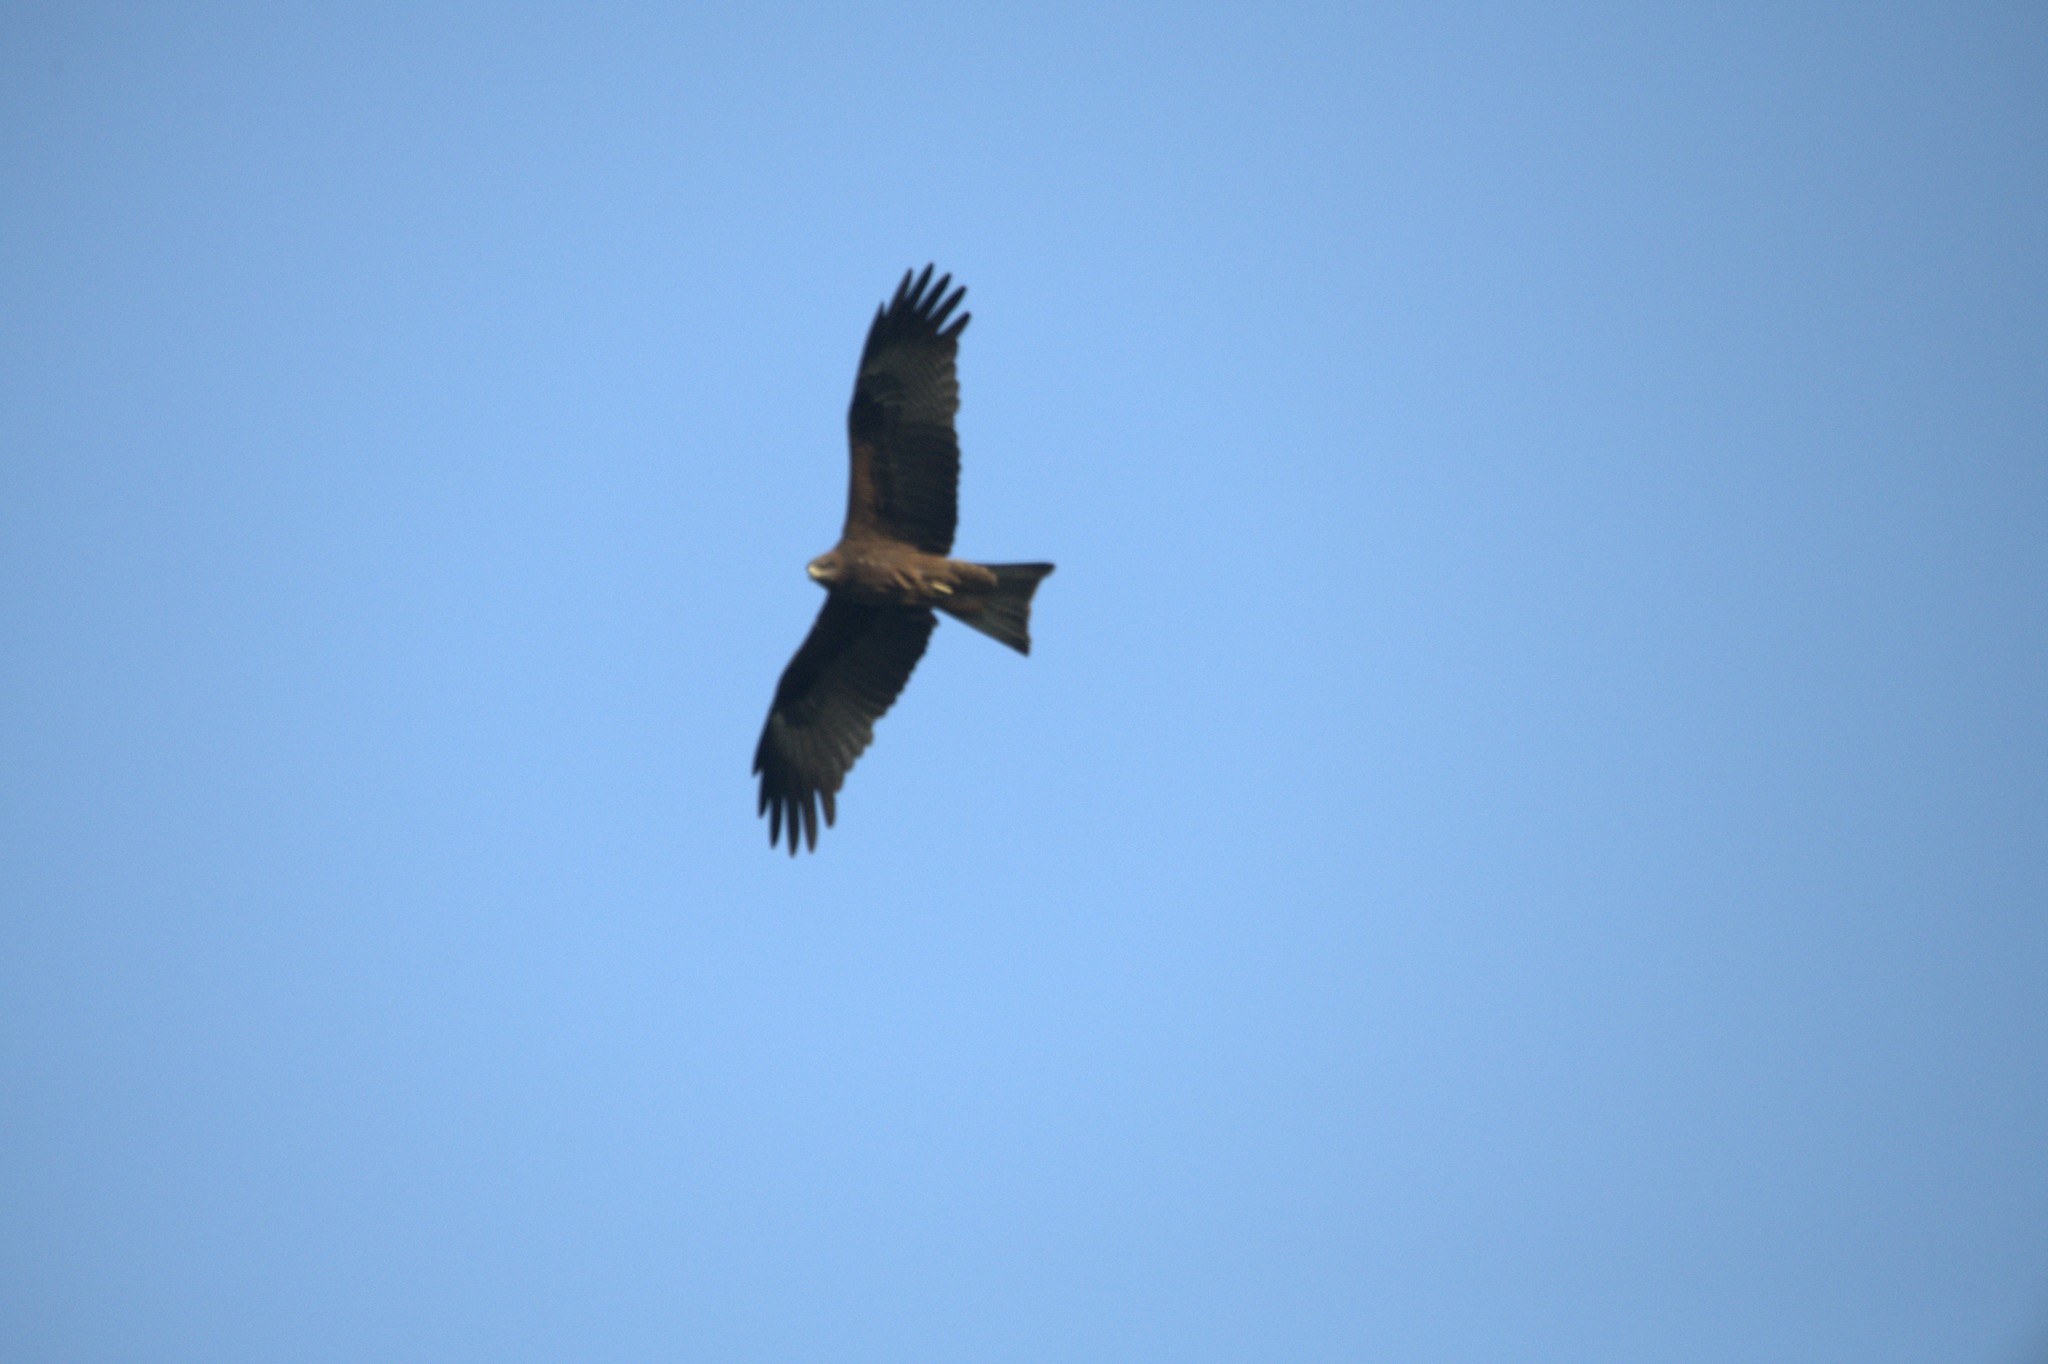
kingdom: Animalia
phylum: Chordata
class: Aves
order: Accipitriformes
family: Accipitridae
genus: Milvus
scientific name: Milvus migrans
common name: Black kite
